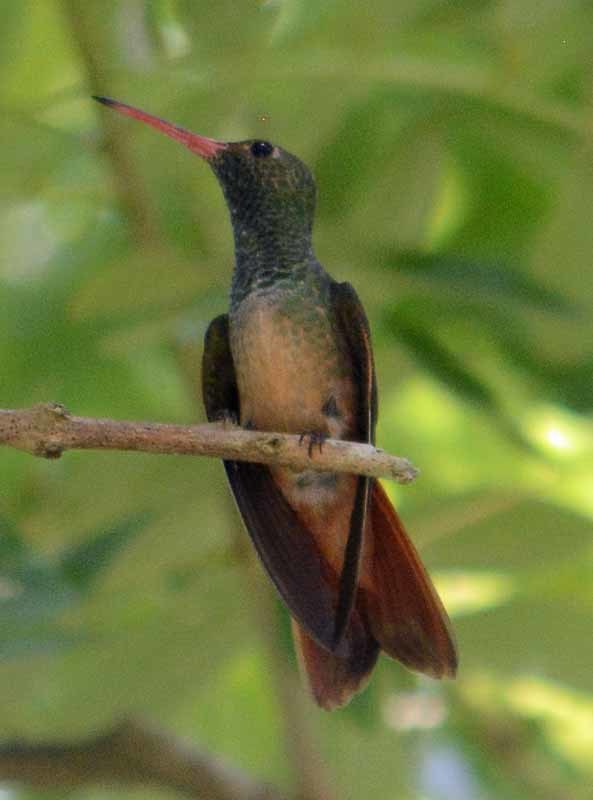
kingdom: Animalia
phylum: Chordata
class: Aves
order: Apodiformes
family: Trochilidae
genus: Amazilia
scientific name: Amazilia yucatanensis
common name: Buff-bellied hummingbird
